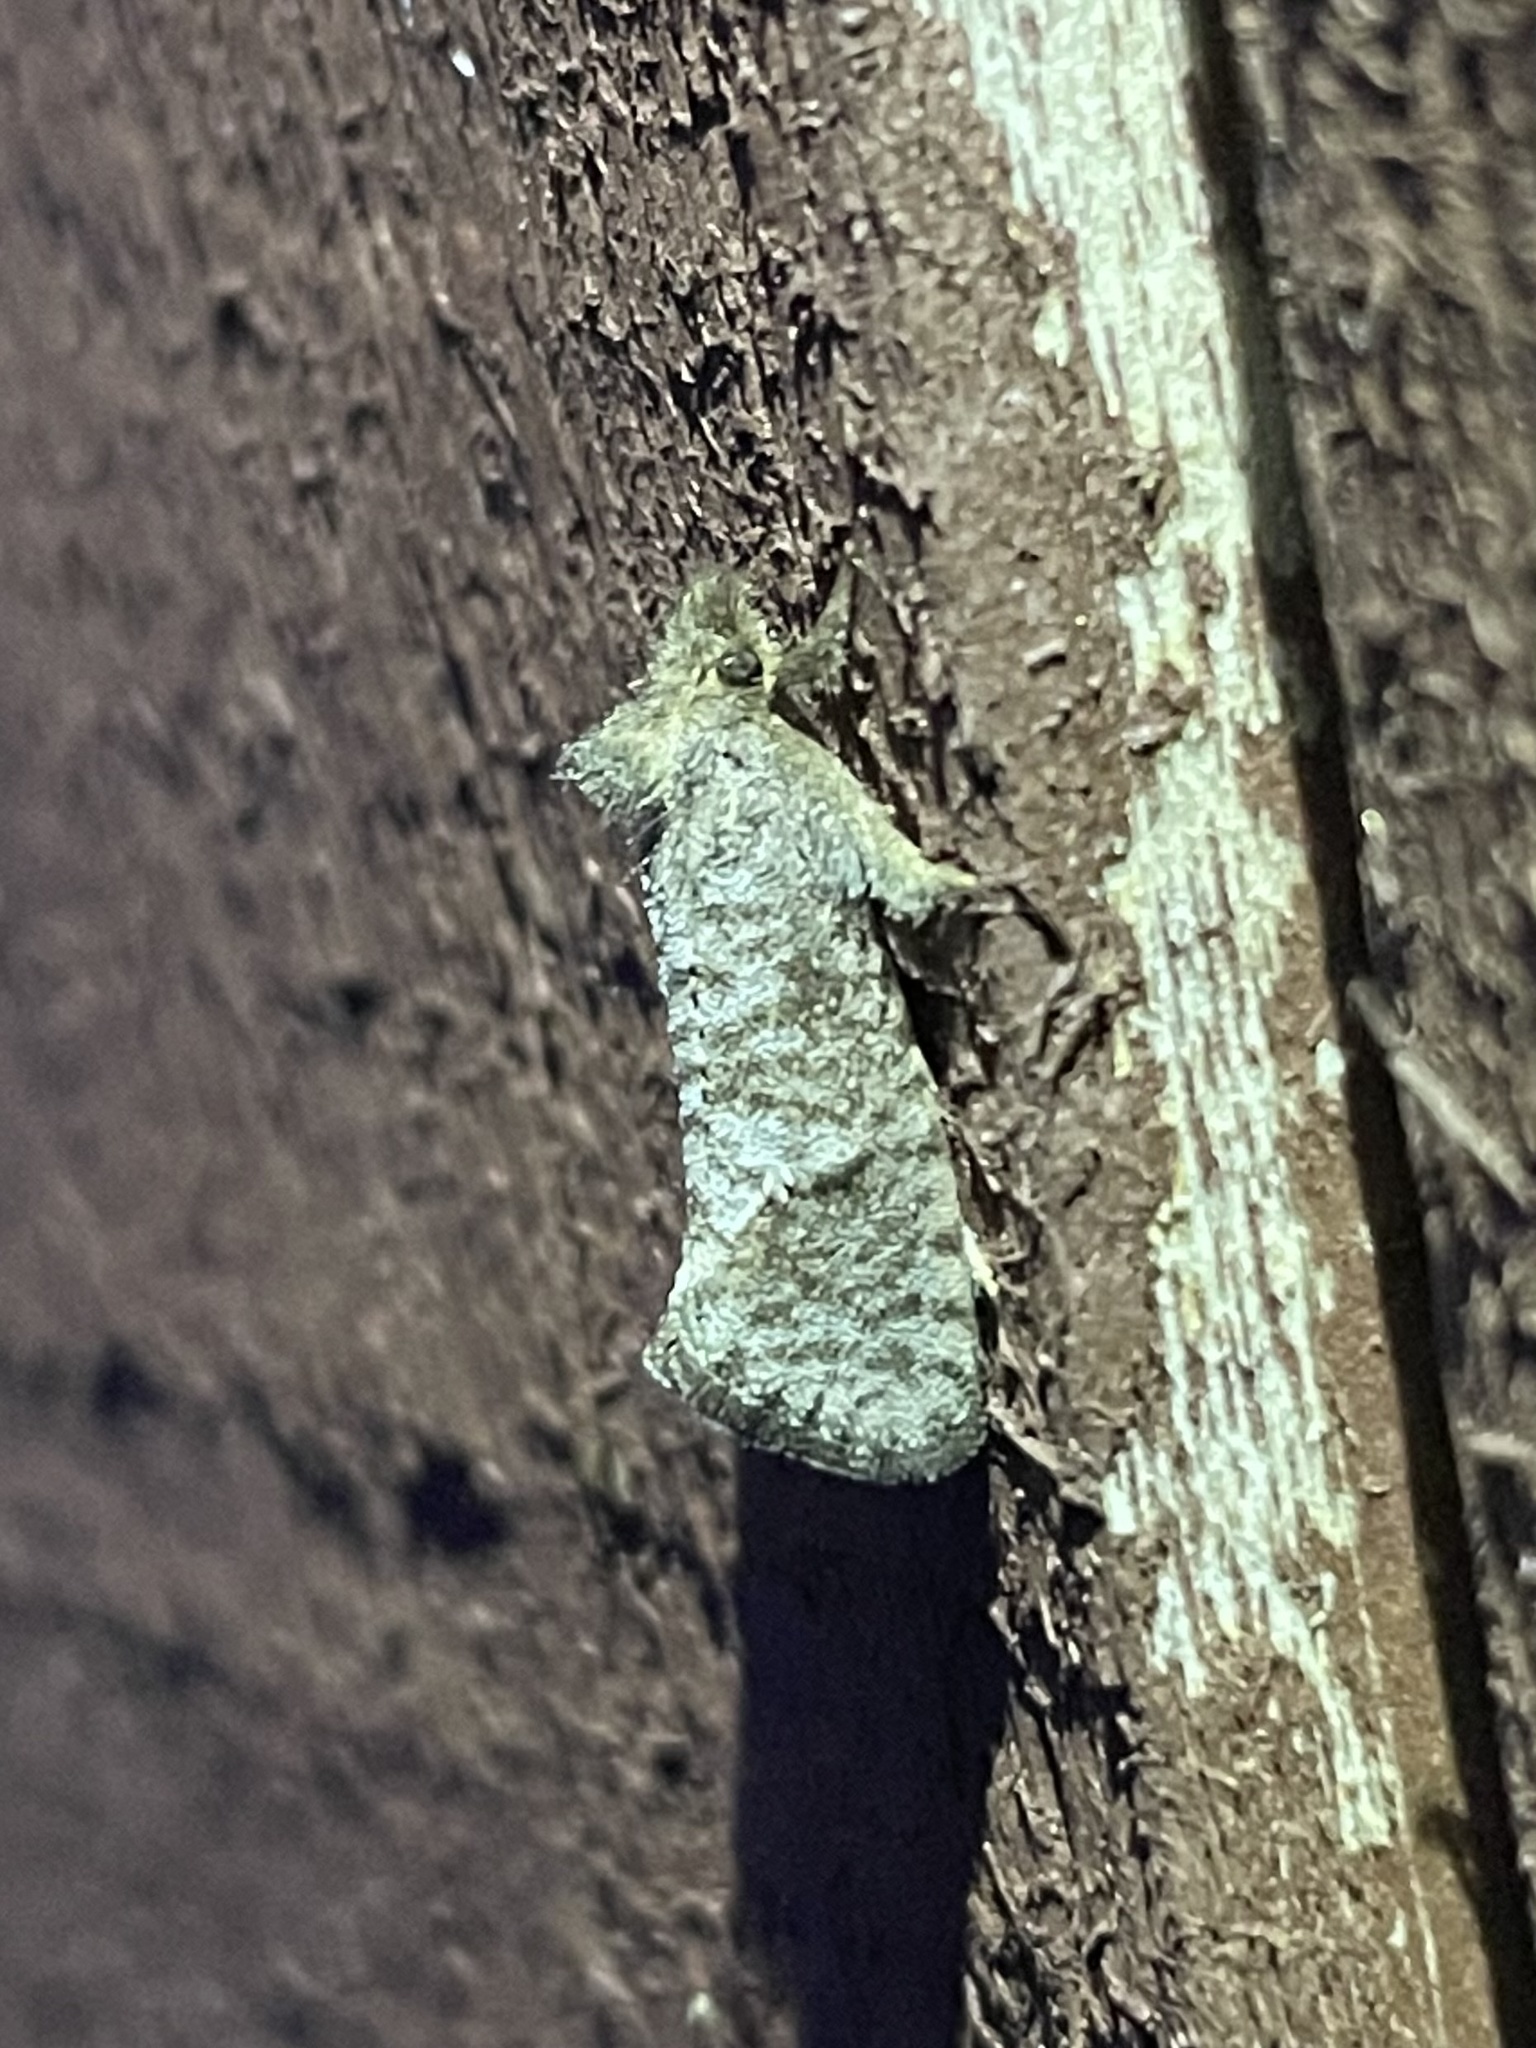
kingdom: Animalia
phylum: Arthropoda
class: Insecta
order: Lepidoptera
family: Tineidae
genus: Acrolophus
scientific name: Acrolophus texanella
